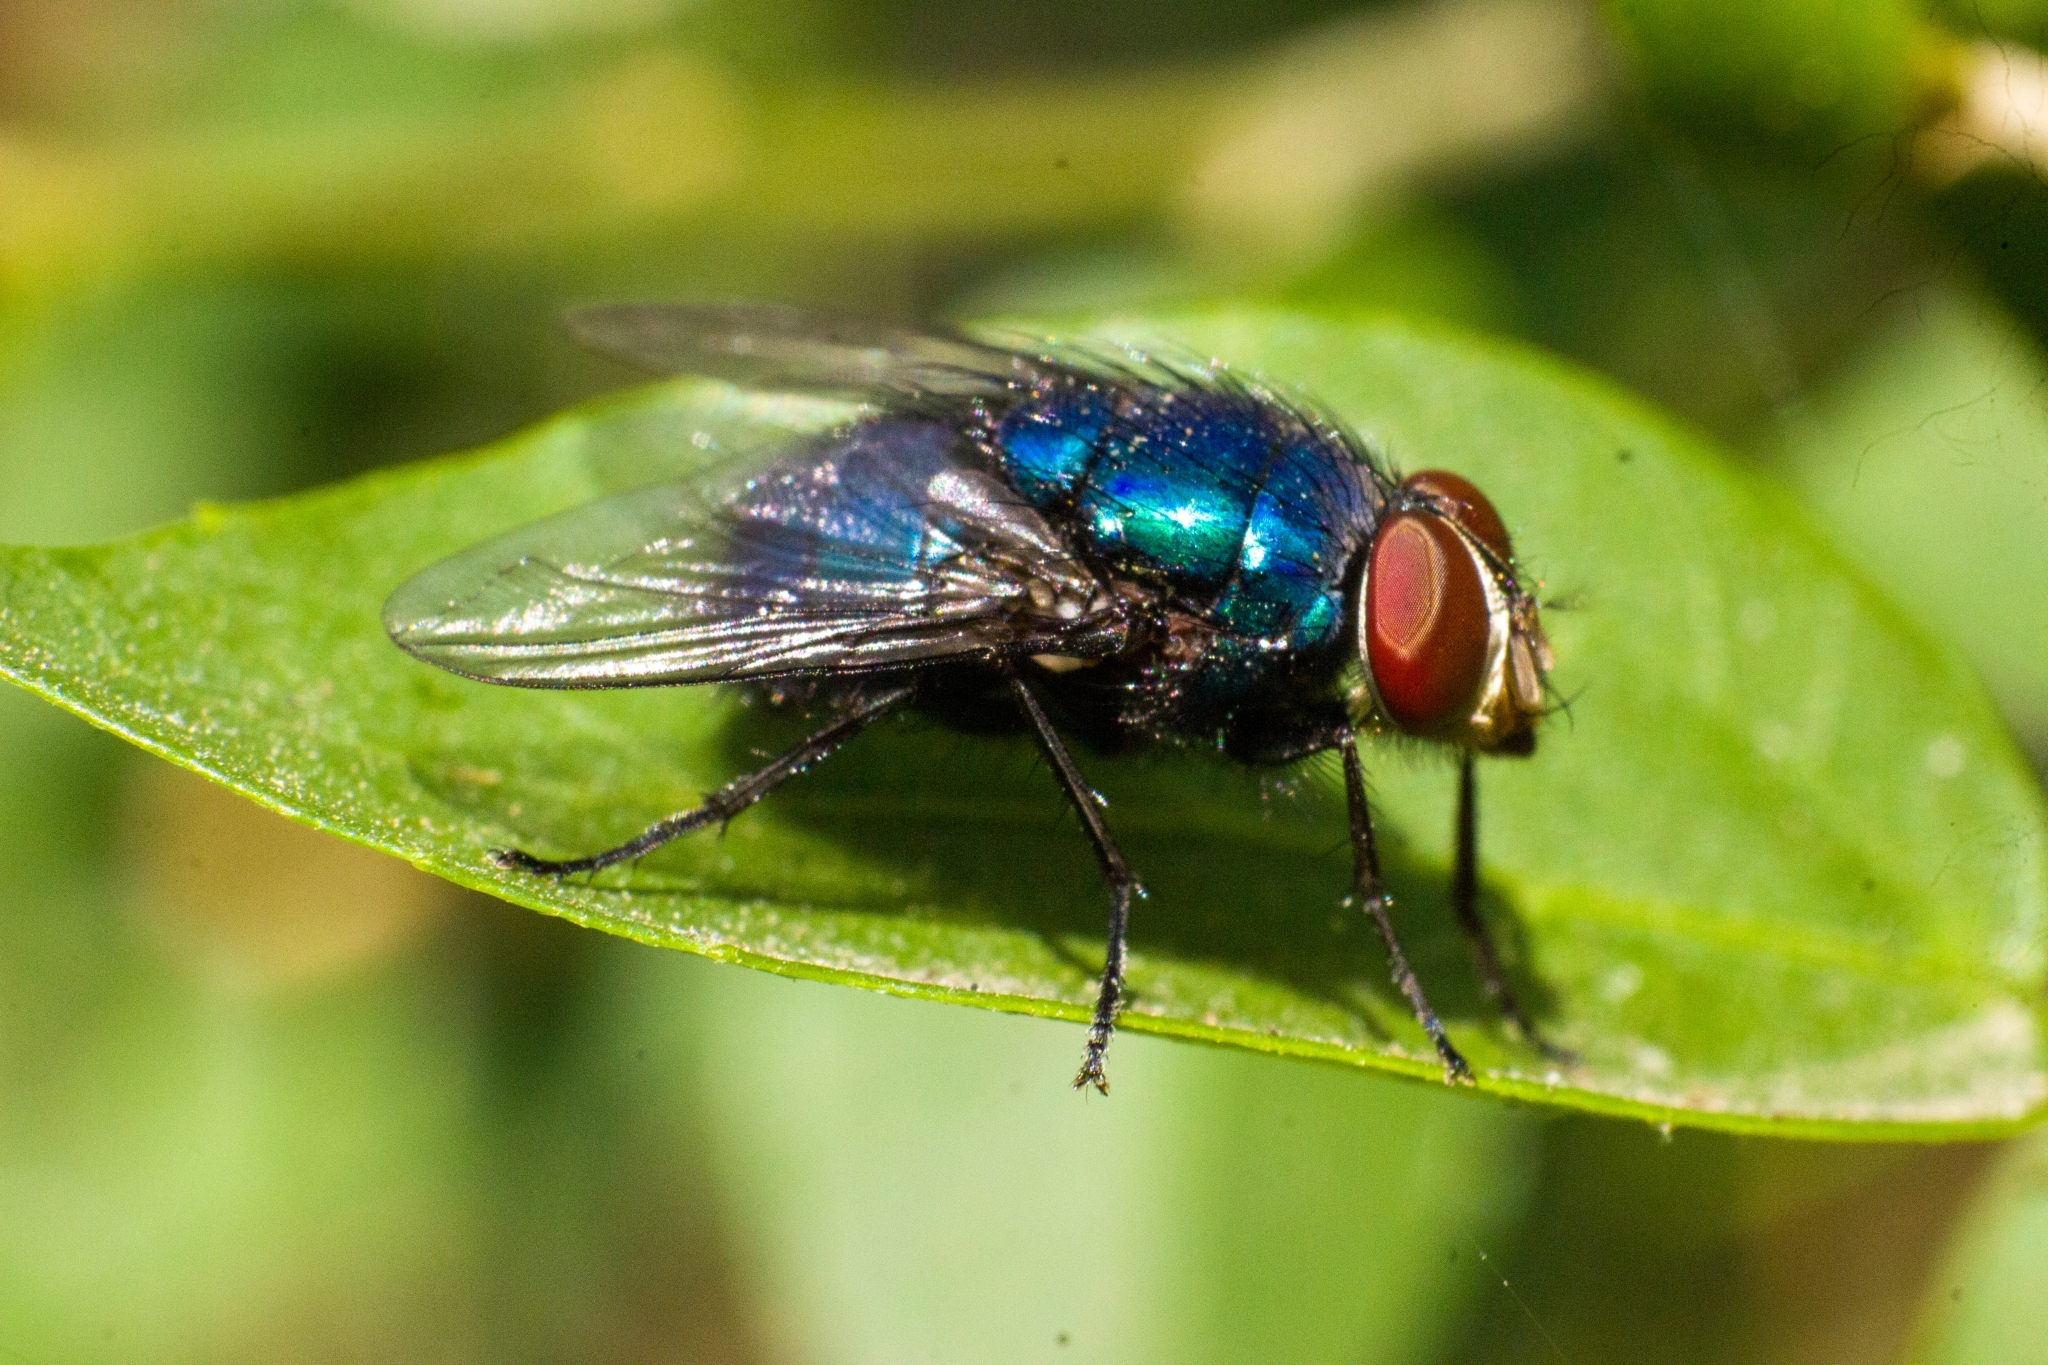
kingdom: Animalia
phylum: Arthropoda
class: Insecta
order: Diptera
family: Calliphoridae
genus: Lucilia
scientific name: Lucilia eximia
